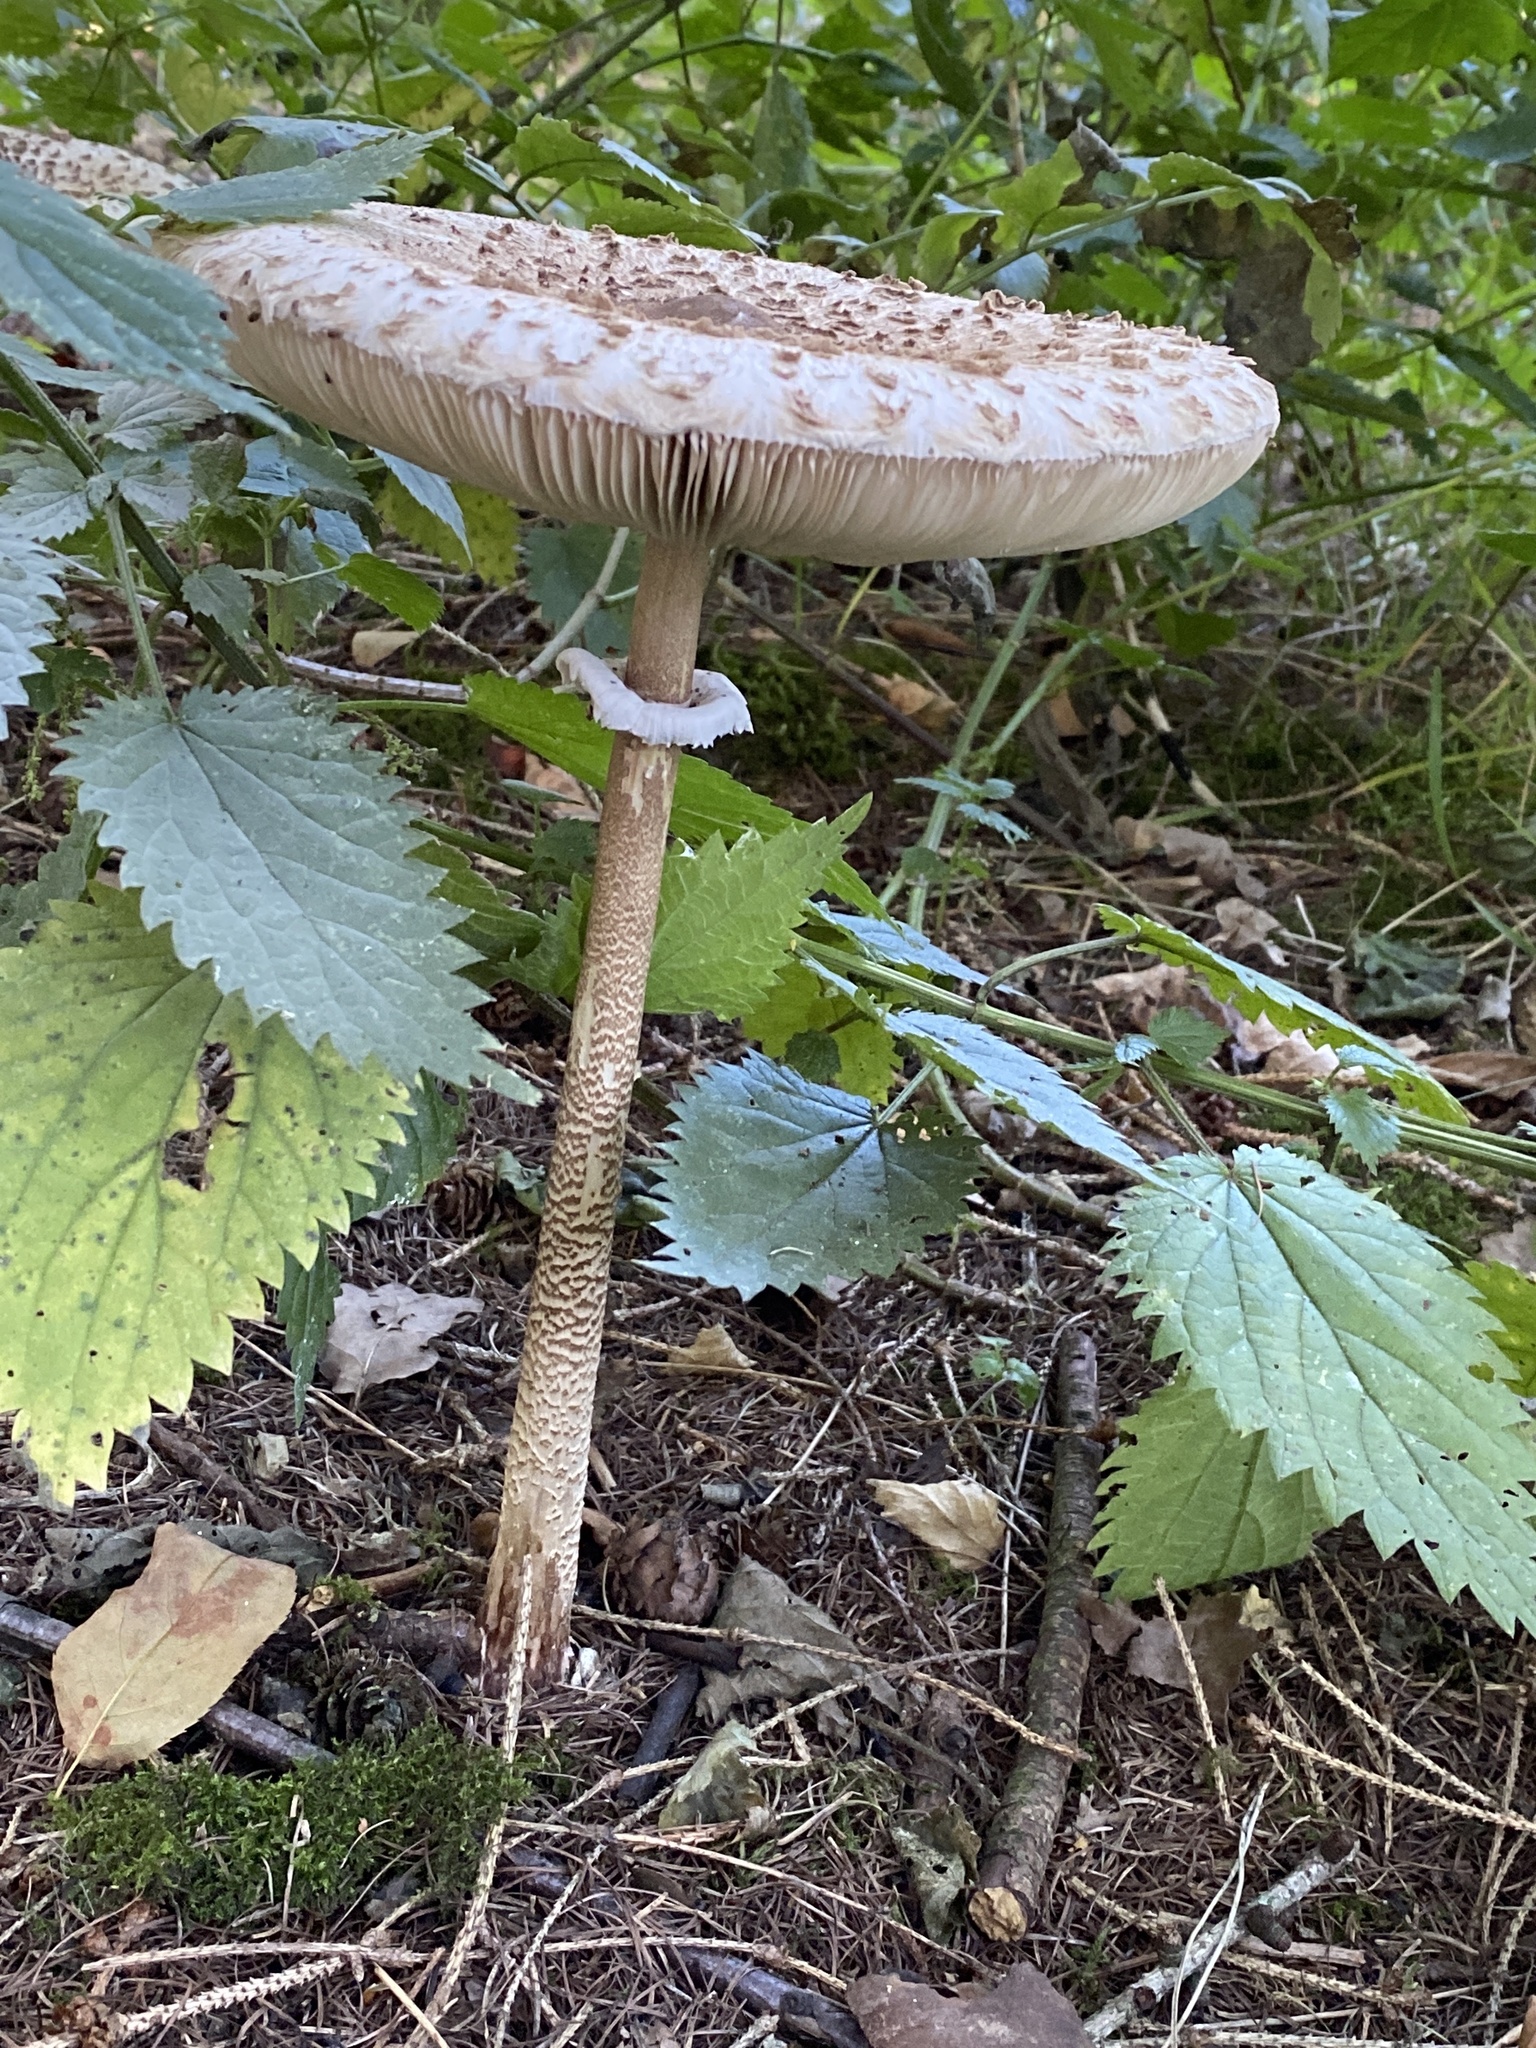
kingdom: Fungi
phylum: Basidiomycota
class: Agaricomycetes
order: Agaricales
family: Agaricaceae
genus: Macrolepiota
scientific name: Macrolepiota procera
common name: Parasol
